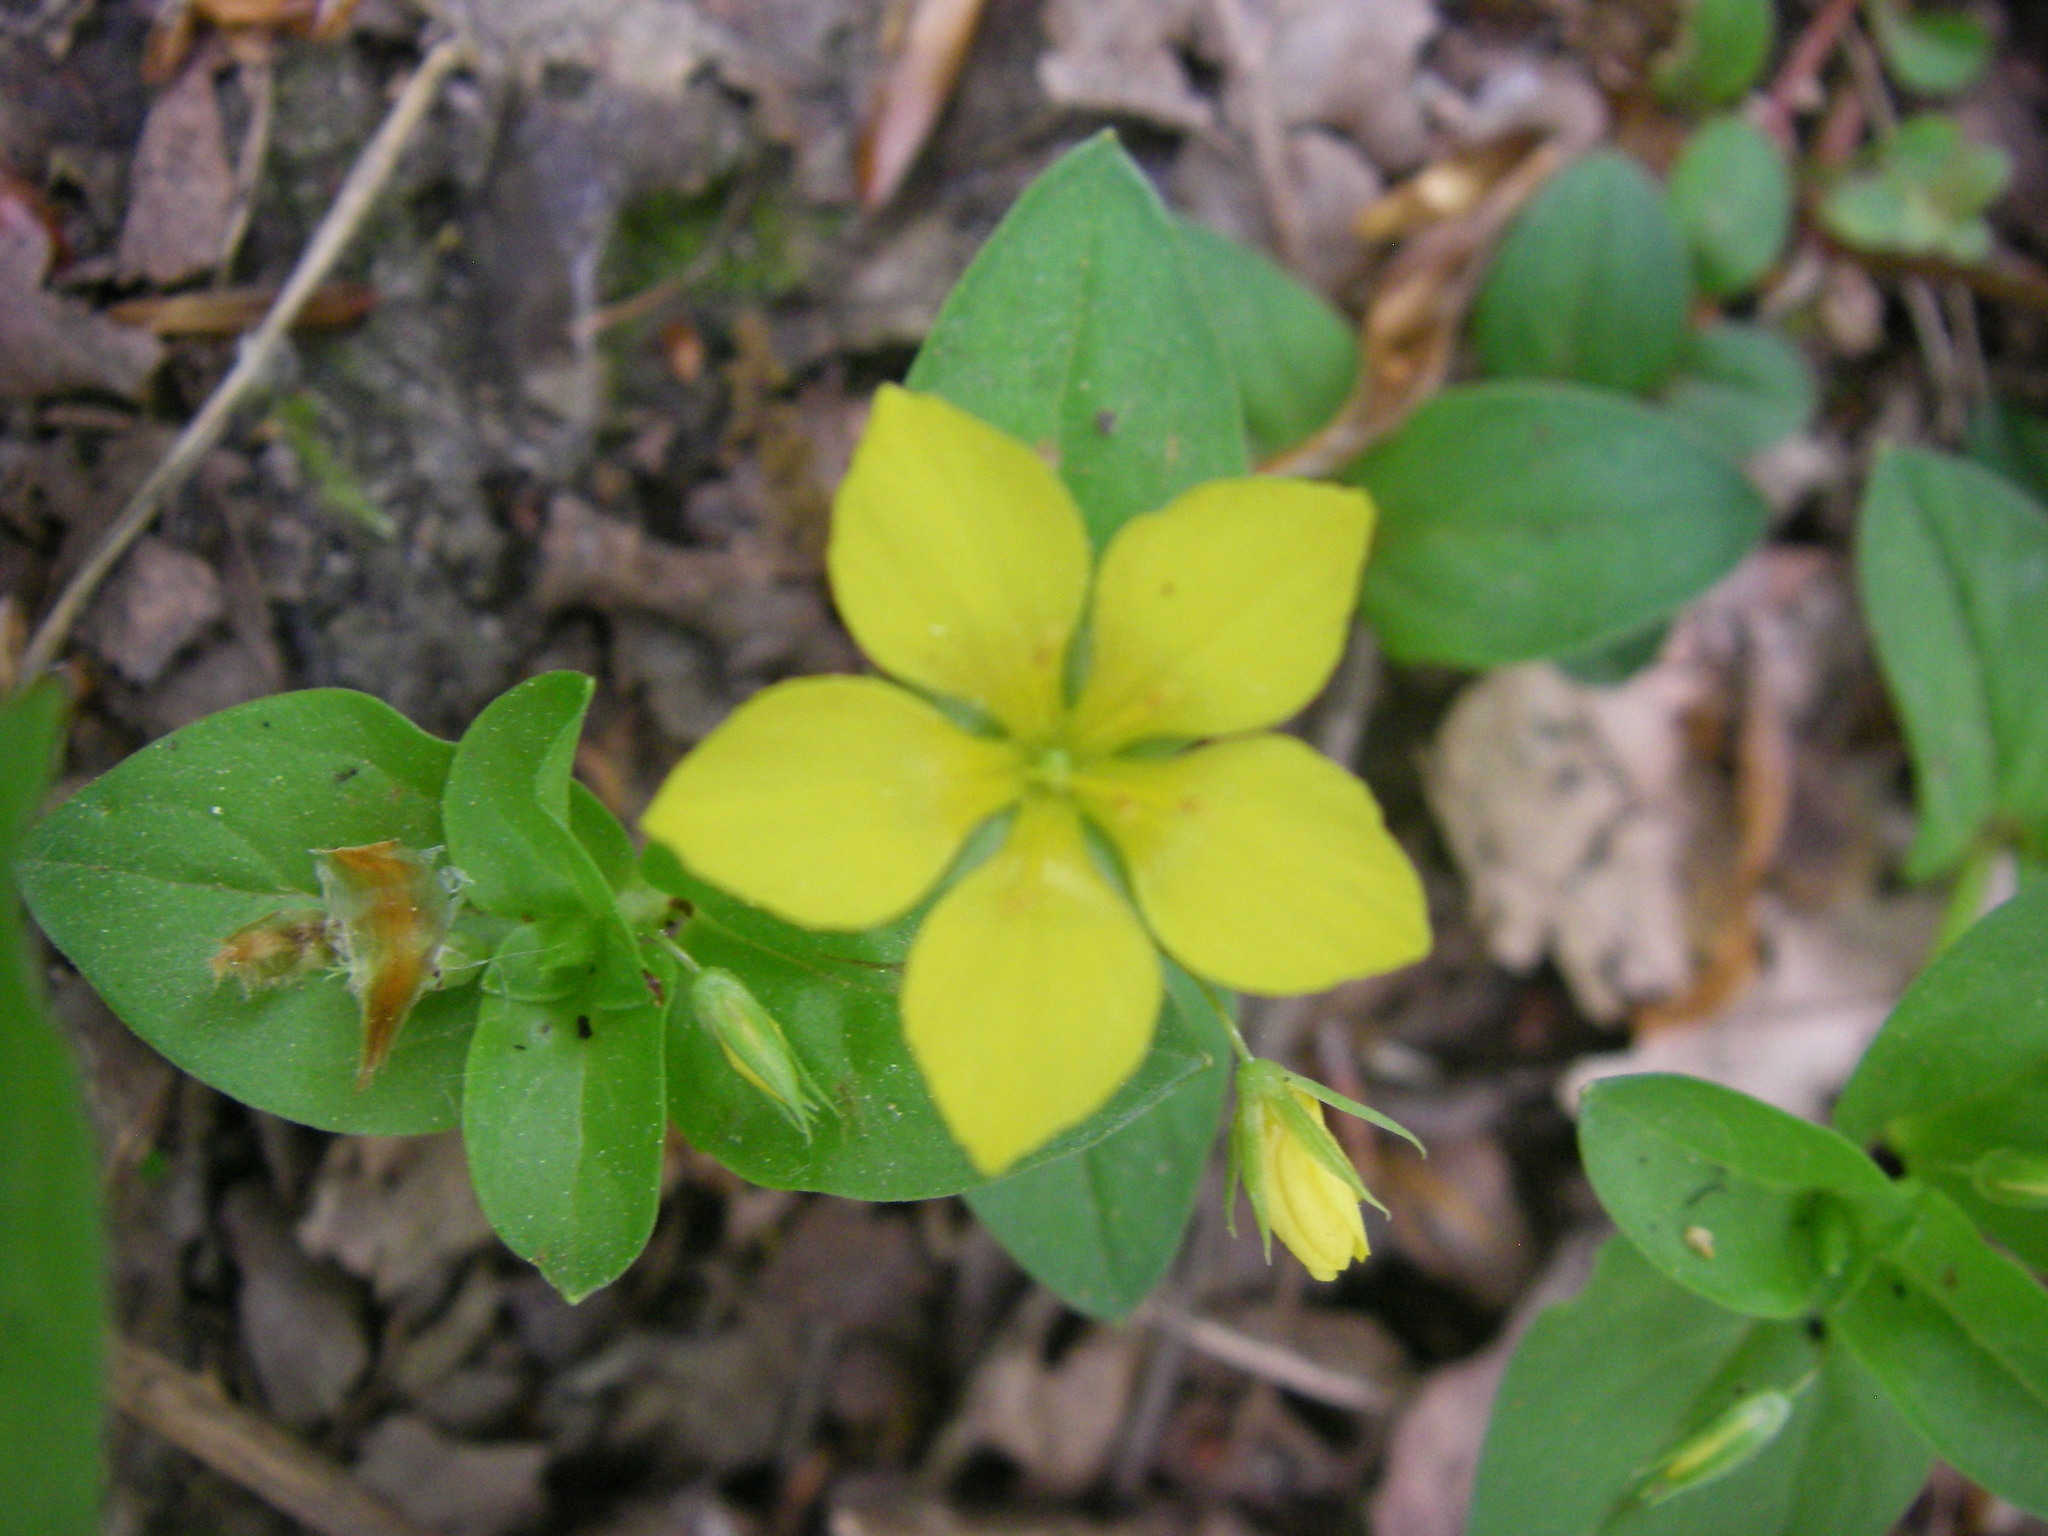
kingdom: Plantae
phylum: Tracheophyta
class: Magnoliopsida
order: Ericales
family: Primulaceae
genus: Lysimachia
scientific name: Lysimachia nemorum
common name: Yellow pimpernel
